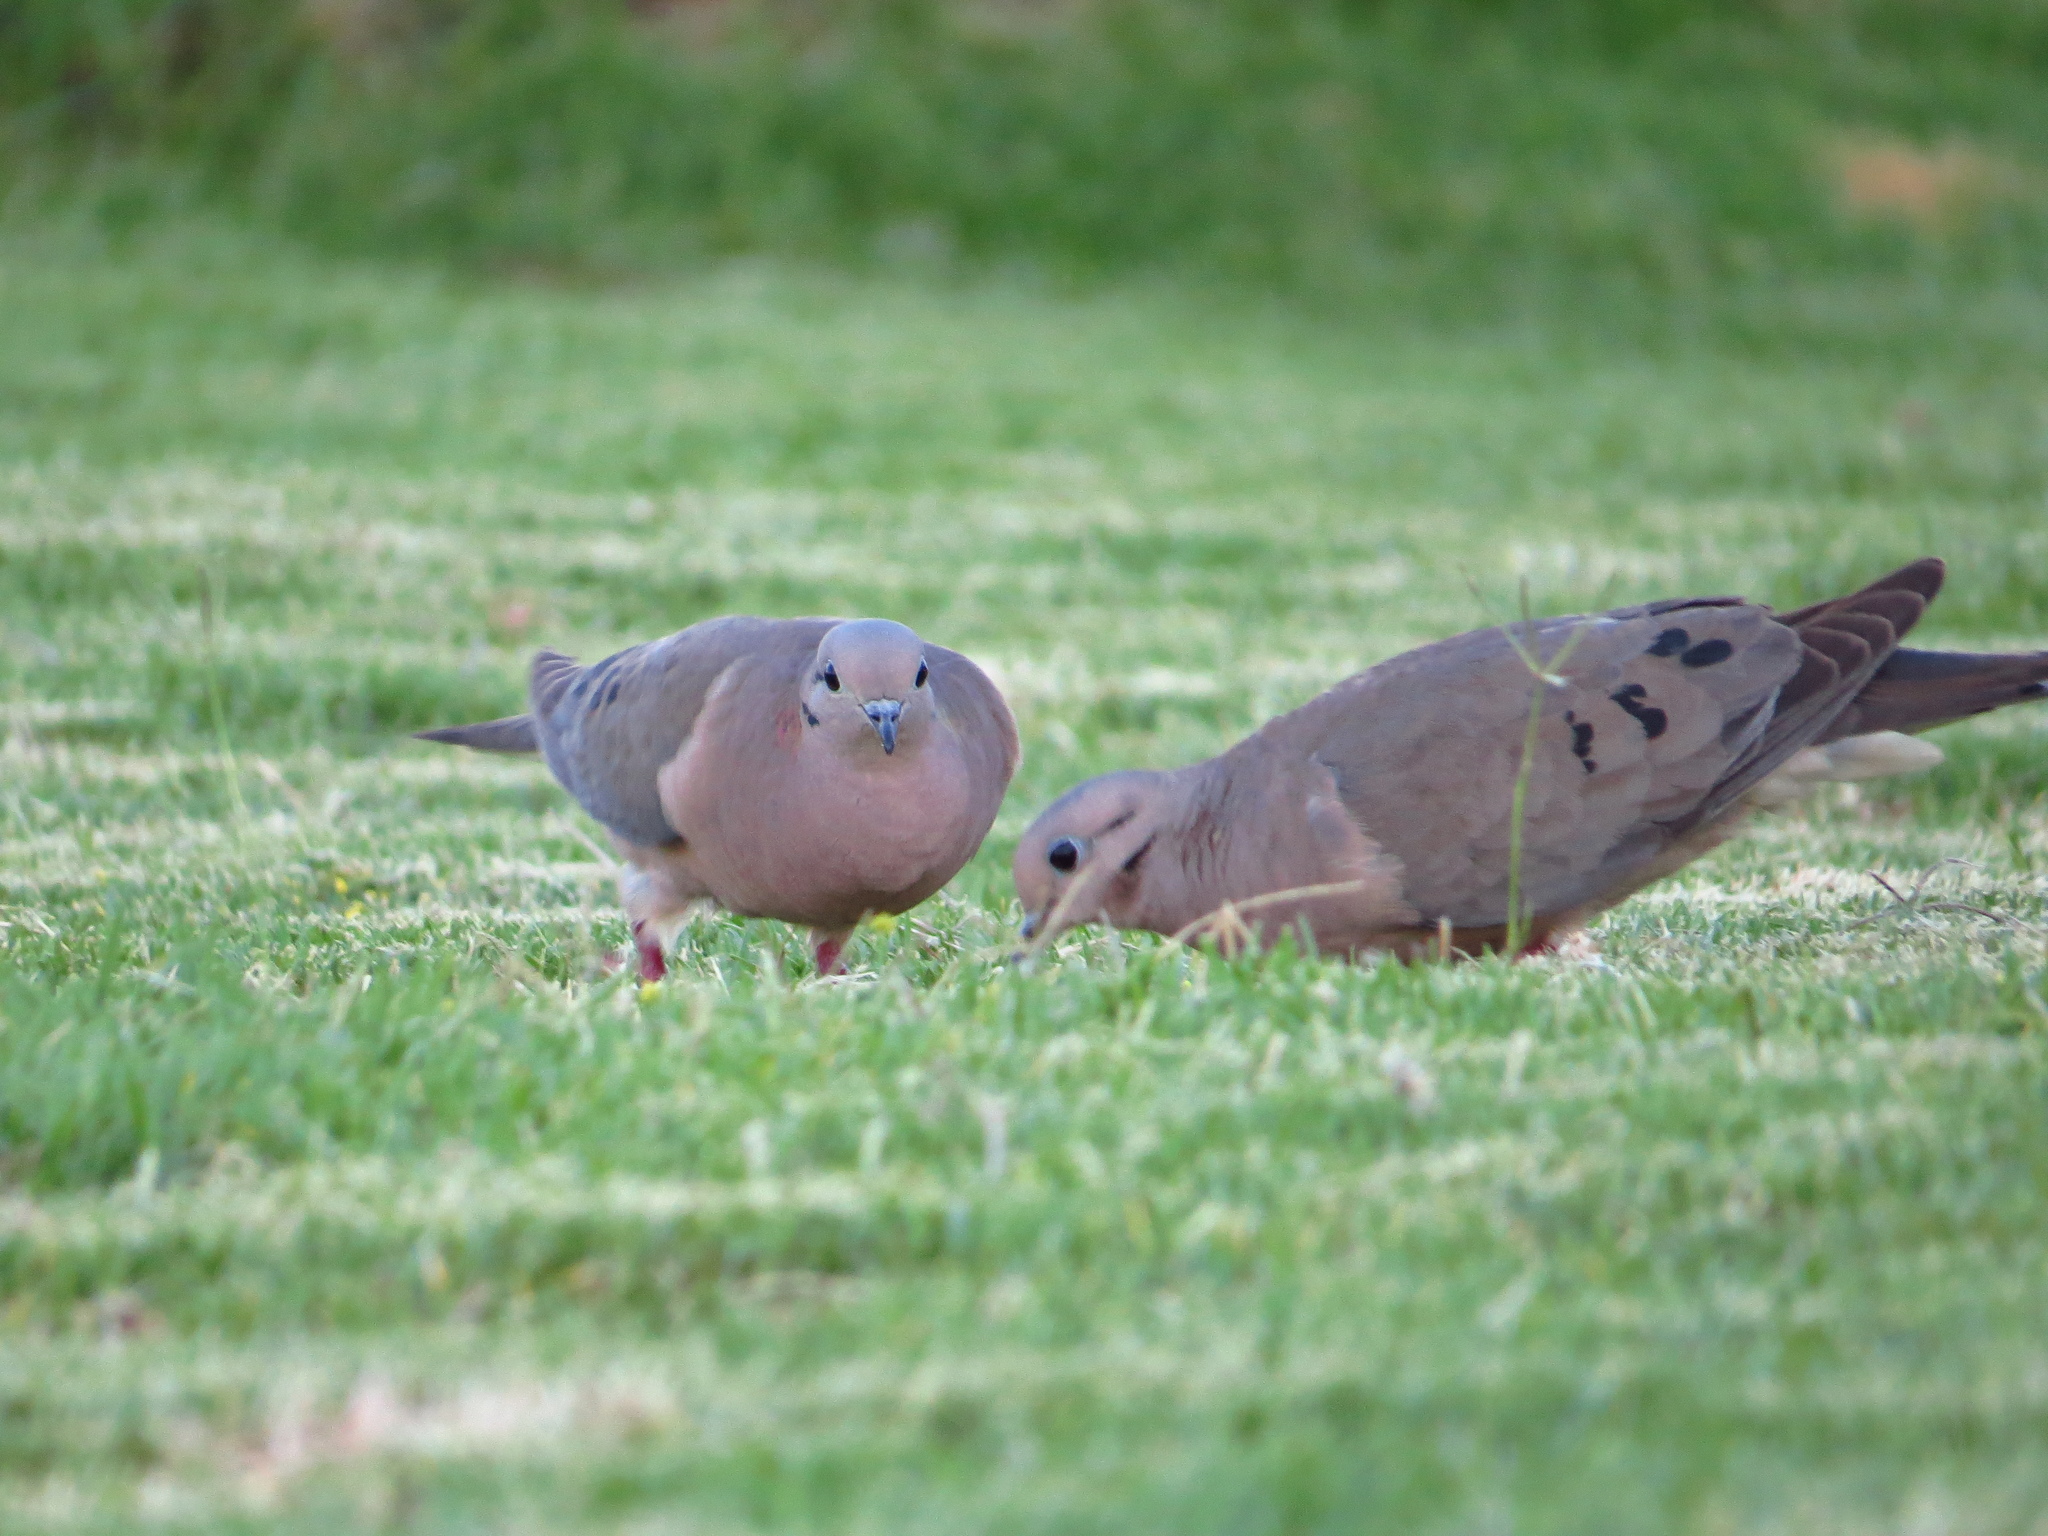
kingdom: Animalia
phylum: Chordata
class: Aves
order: Columbiformes
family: Columbidae
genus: Zenaida
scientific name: Zenaida auriculata
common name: Eared dove
